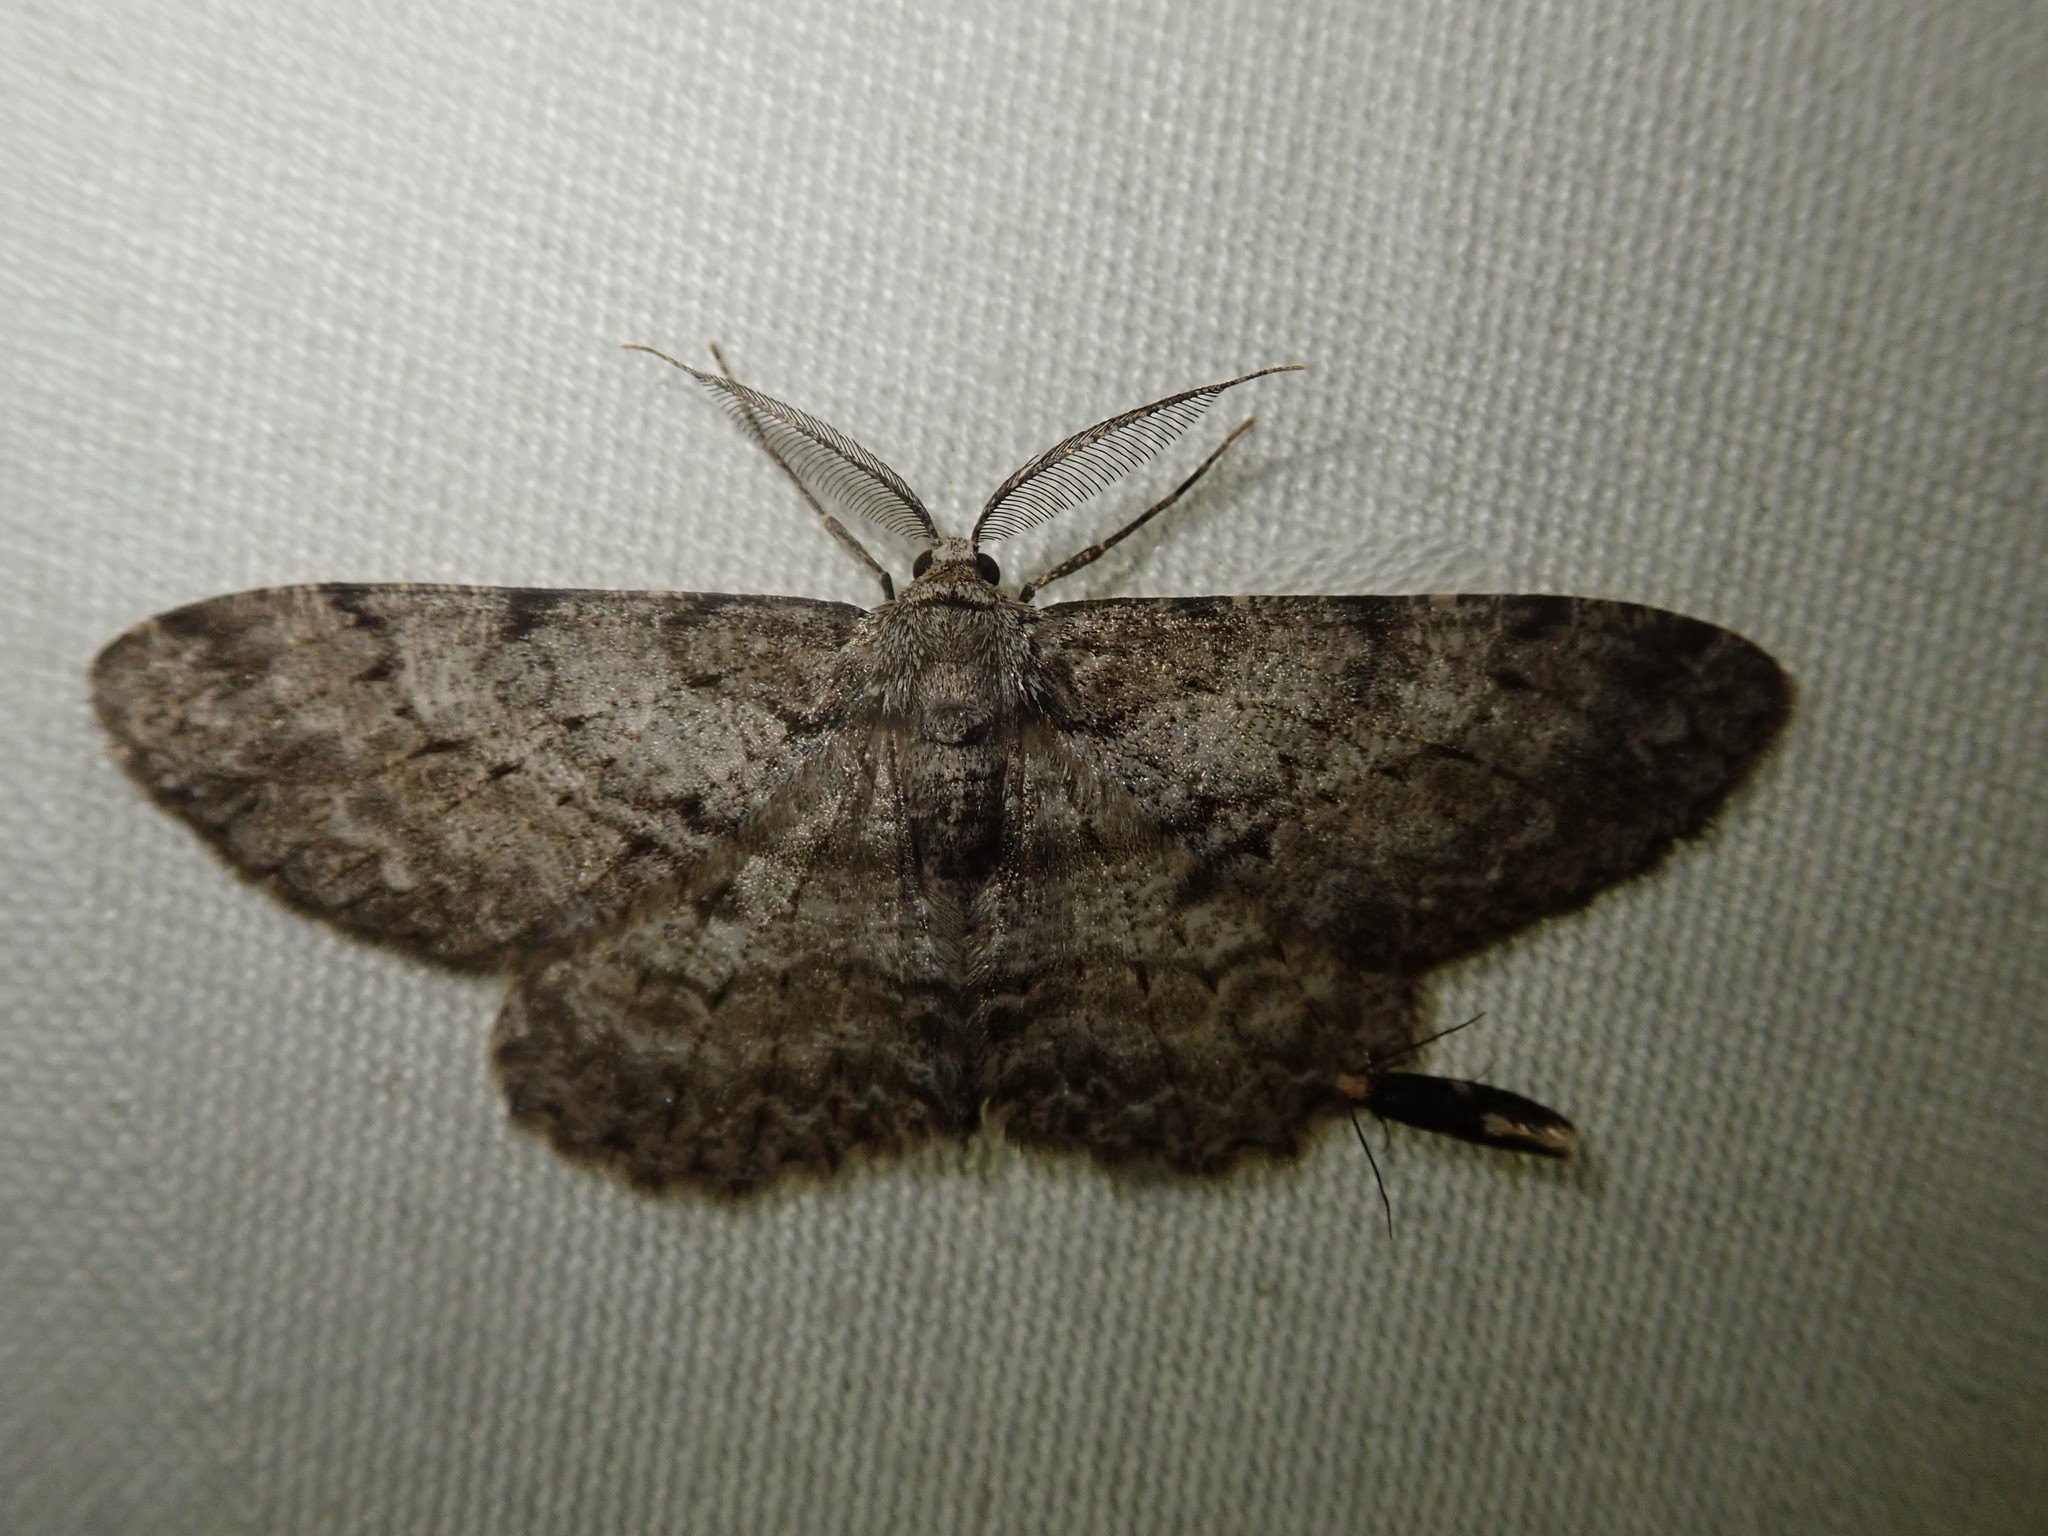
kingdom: Animalia
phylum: Arthropoda
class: Insecta
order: Lepidoptera
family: Geometridae
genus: Hypomecis
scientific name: Hypomecis punctinalis
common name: Pale oak beauty
